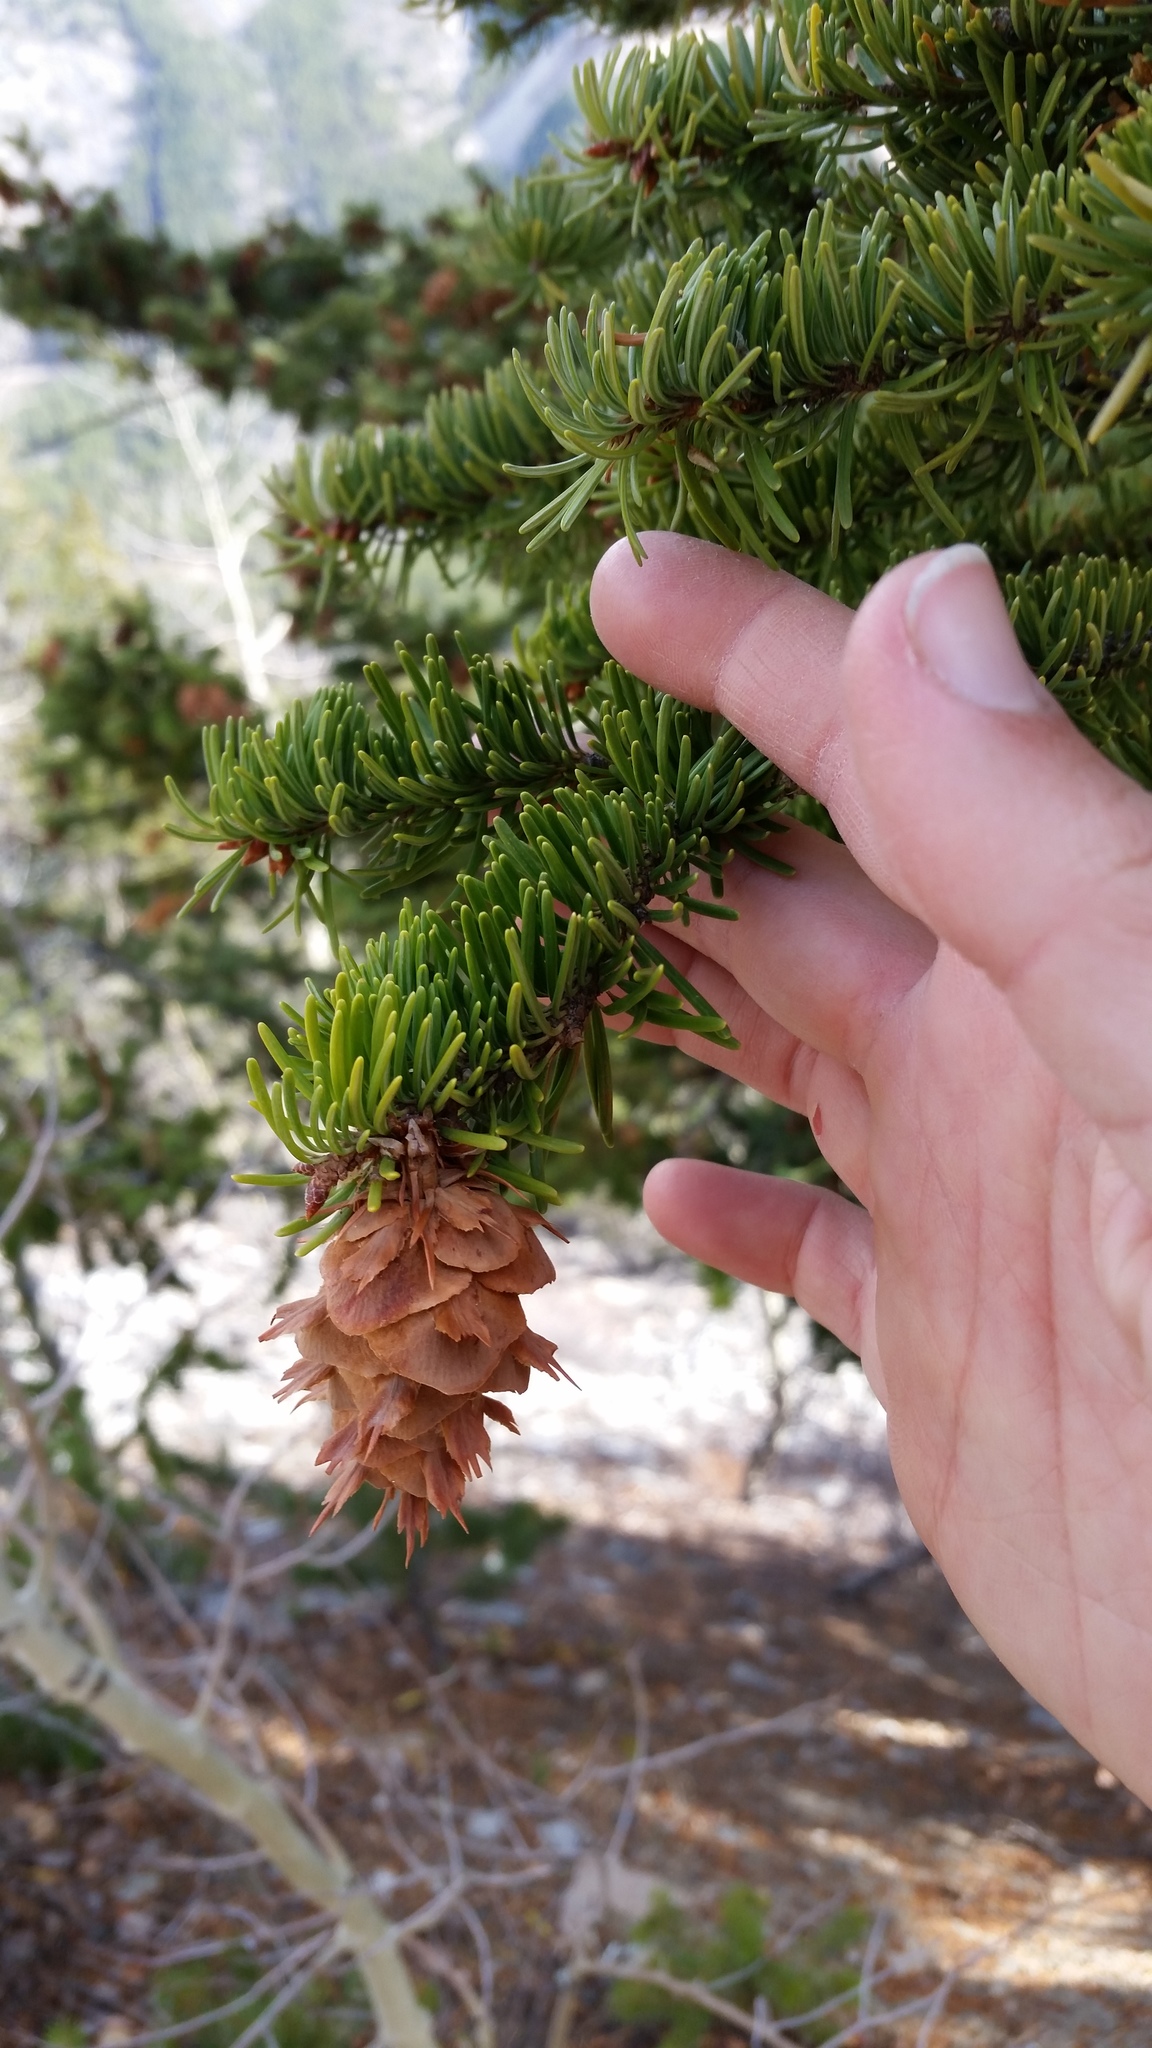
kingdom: Plantae
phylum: Tracheophyta
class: Pinopsida
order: Pinales
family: Pinaceae
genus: Pseudotsuga
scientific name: Pseudotsuga menziesii
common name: Douglas fir
